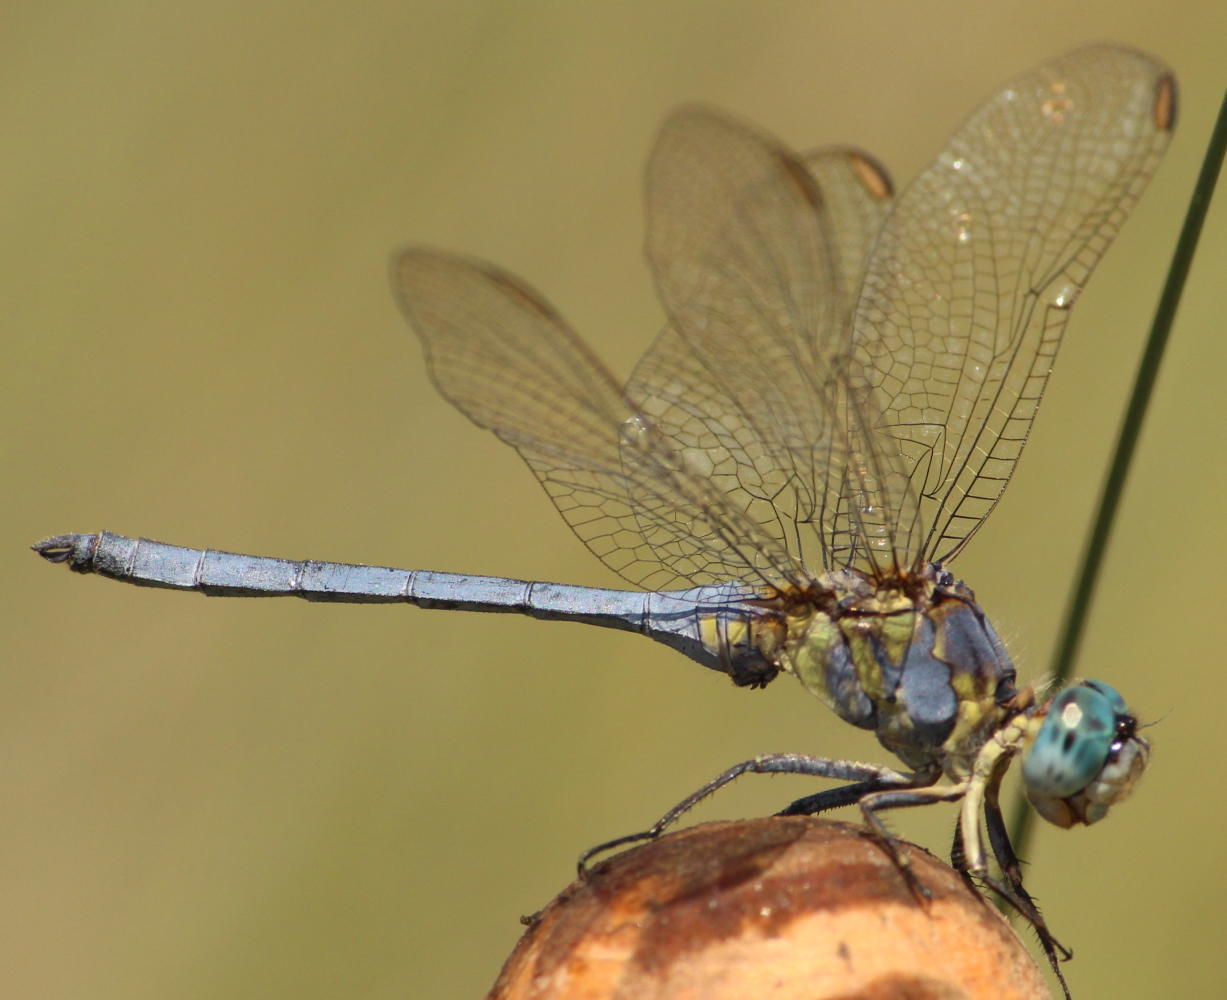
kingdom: Animalia
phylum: Arthropoda
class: Insecta
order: Odonata
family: Libellulidae
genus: Orthetrum
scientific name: Orthetrum abbotti
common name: Abbott's skimmer
